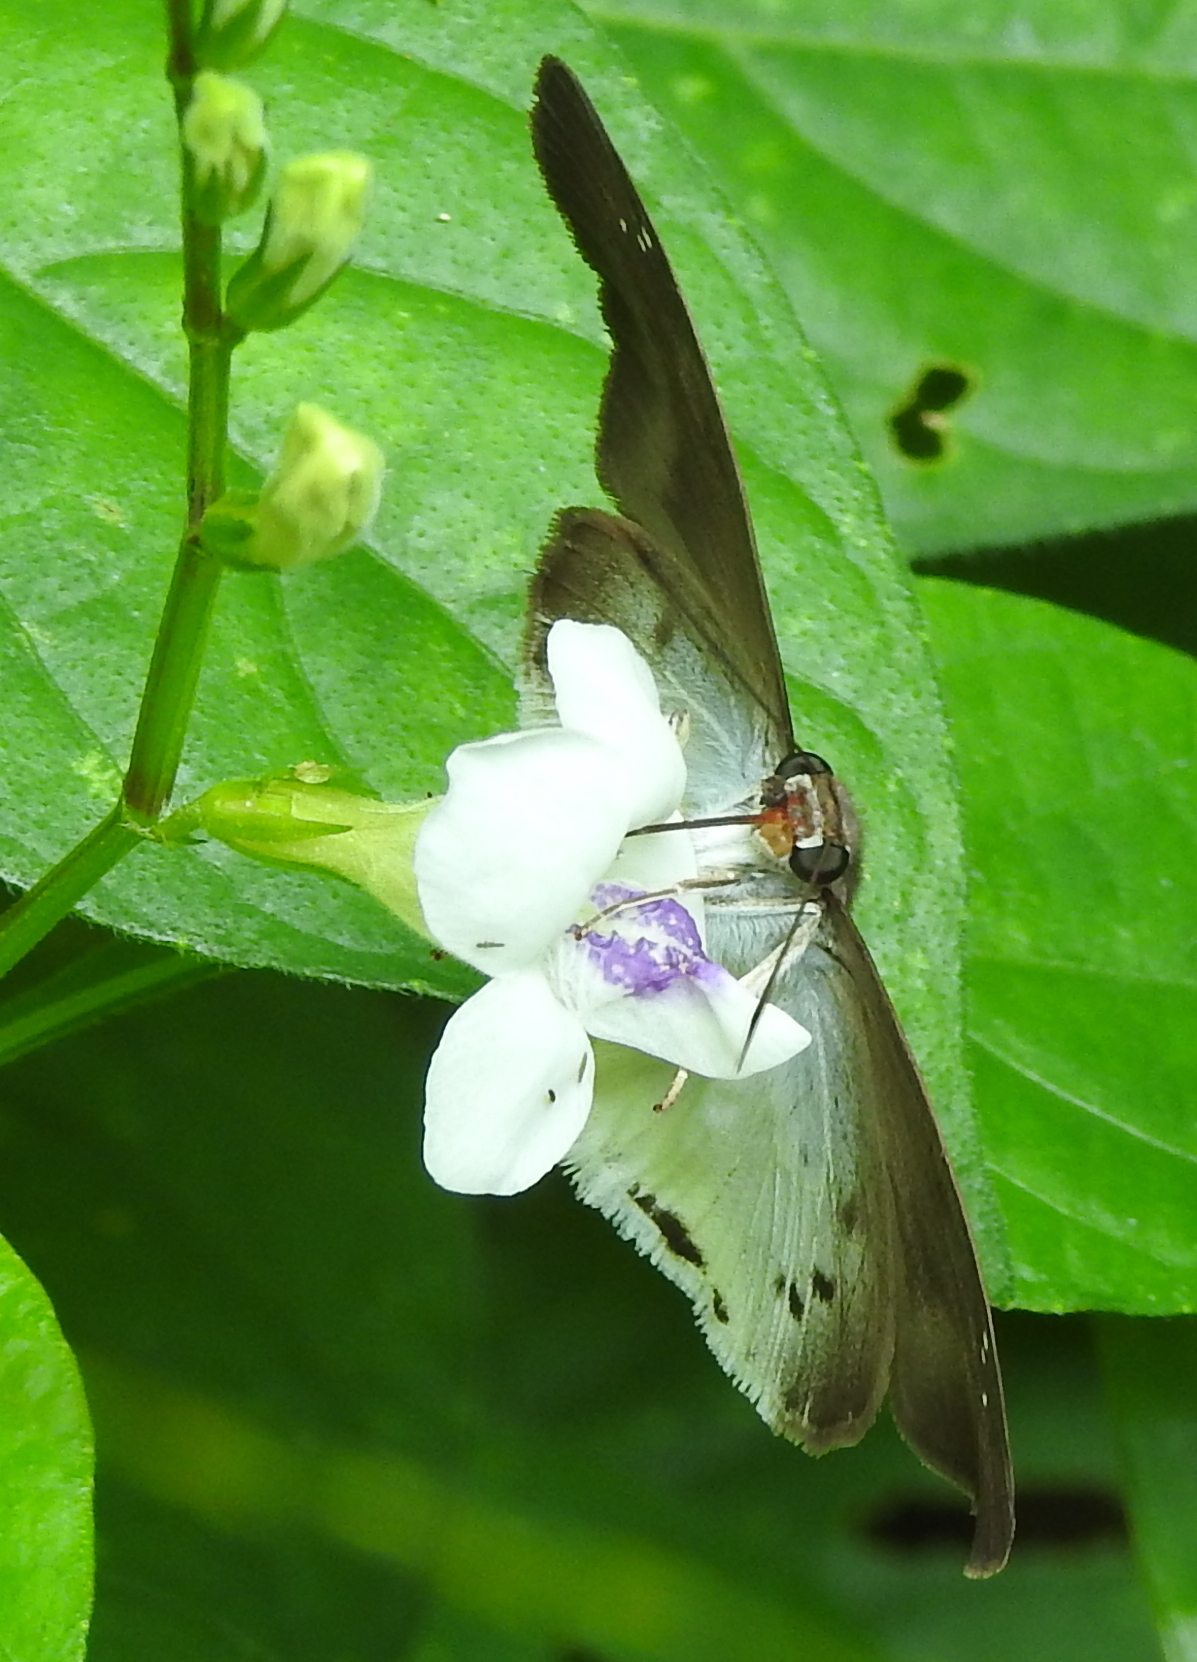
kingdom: Animalia
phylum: Arthropoda
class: Insecta
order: Lepidoptera
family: Hesperiidae
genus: Tagiades
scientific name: Tagiades gana
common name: Suffused snow flat
